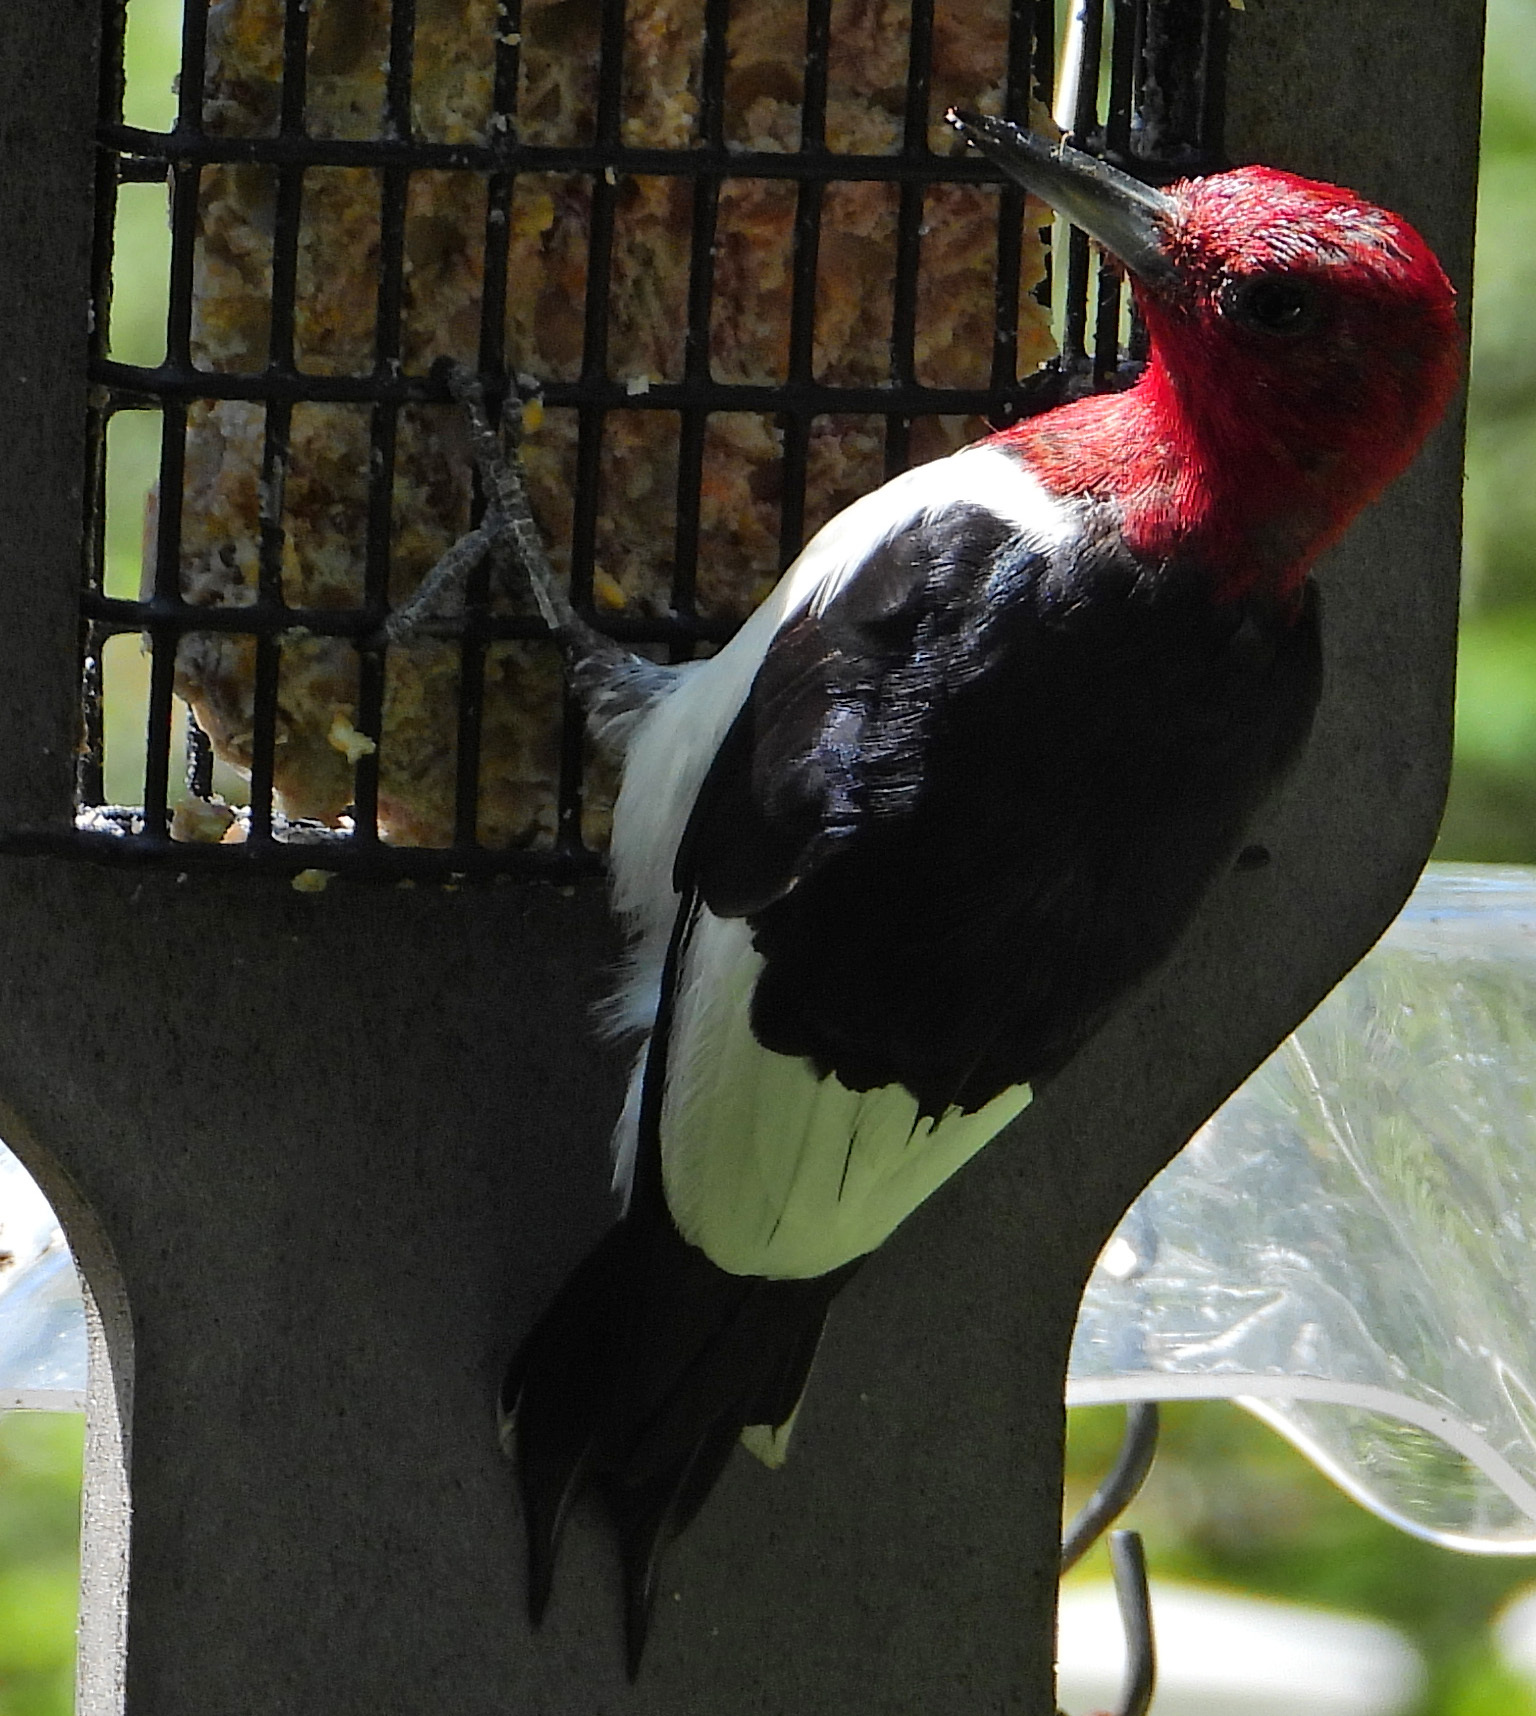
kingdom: Animalia
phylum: Chordata
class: Aves
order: Piciformes
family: Picidae
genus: Melanerpes
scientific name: Melanerpes erythrocephalus
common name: Red-headed woodpecker
